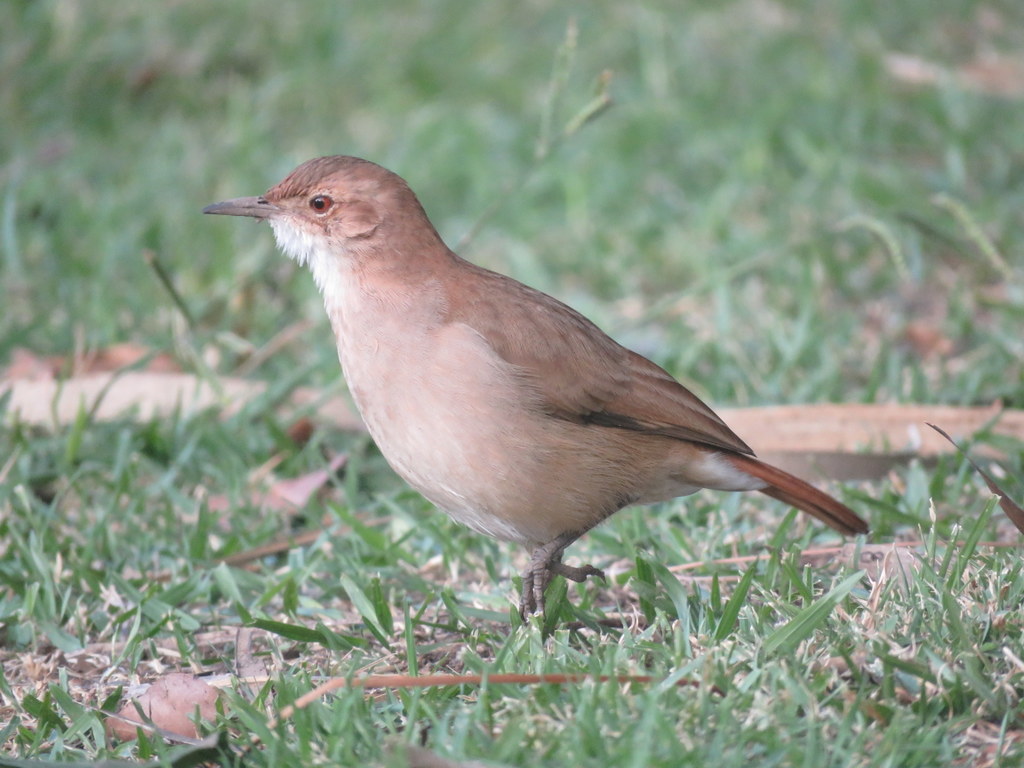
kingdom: Animalia
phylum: Chordata
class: Aves
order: Passeriformes
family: Furnariidae
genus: Furnarius
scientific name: Furnarius rufus
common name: Rufous hornero
